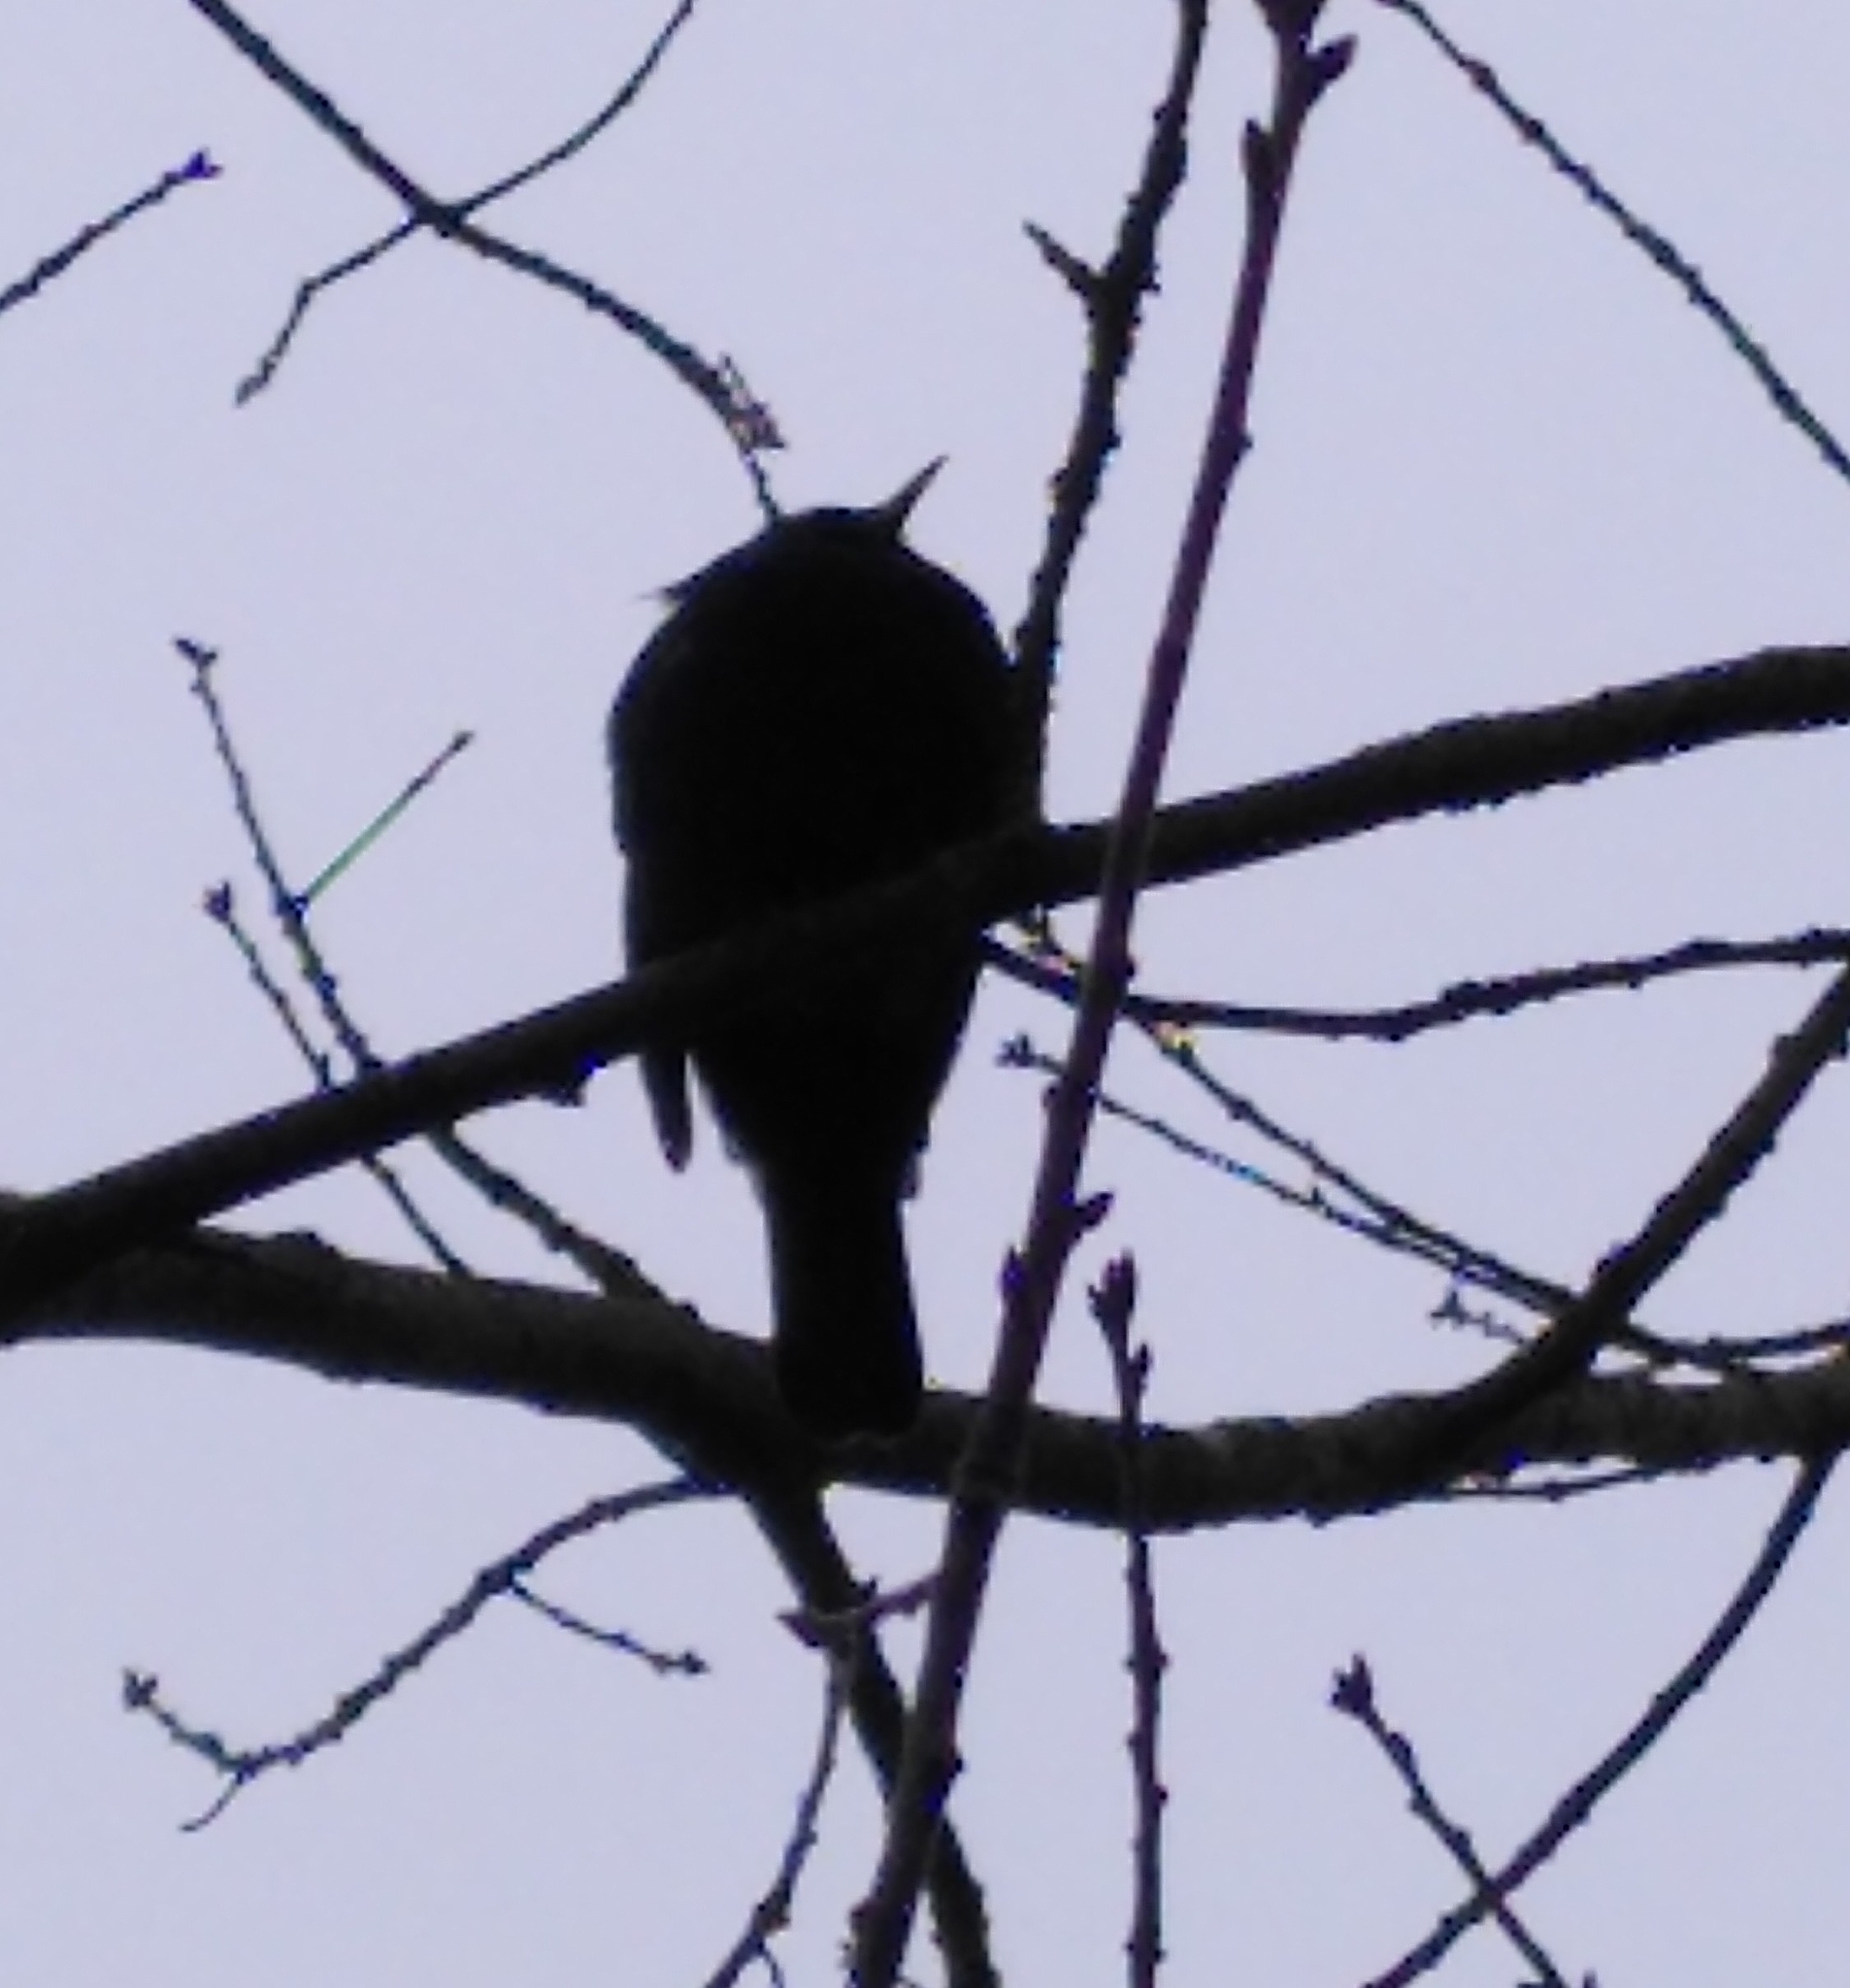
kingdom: Animalia
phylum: Chordata
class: Aves
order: Passeriformes
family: Turdidae
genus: Turdus
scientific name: Turdus merula
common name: Common blackbird
